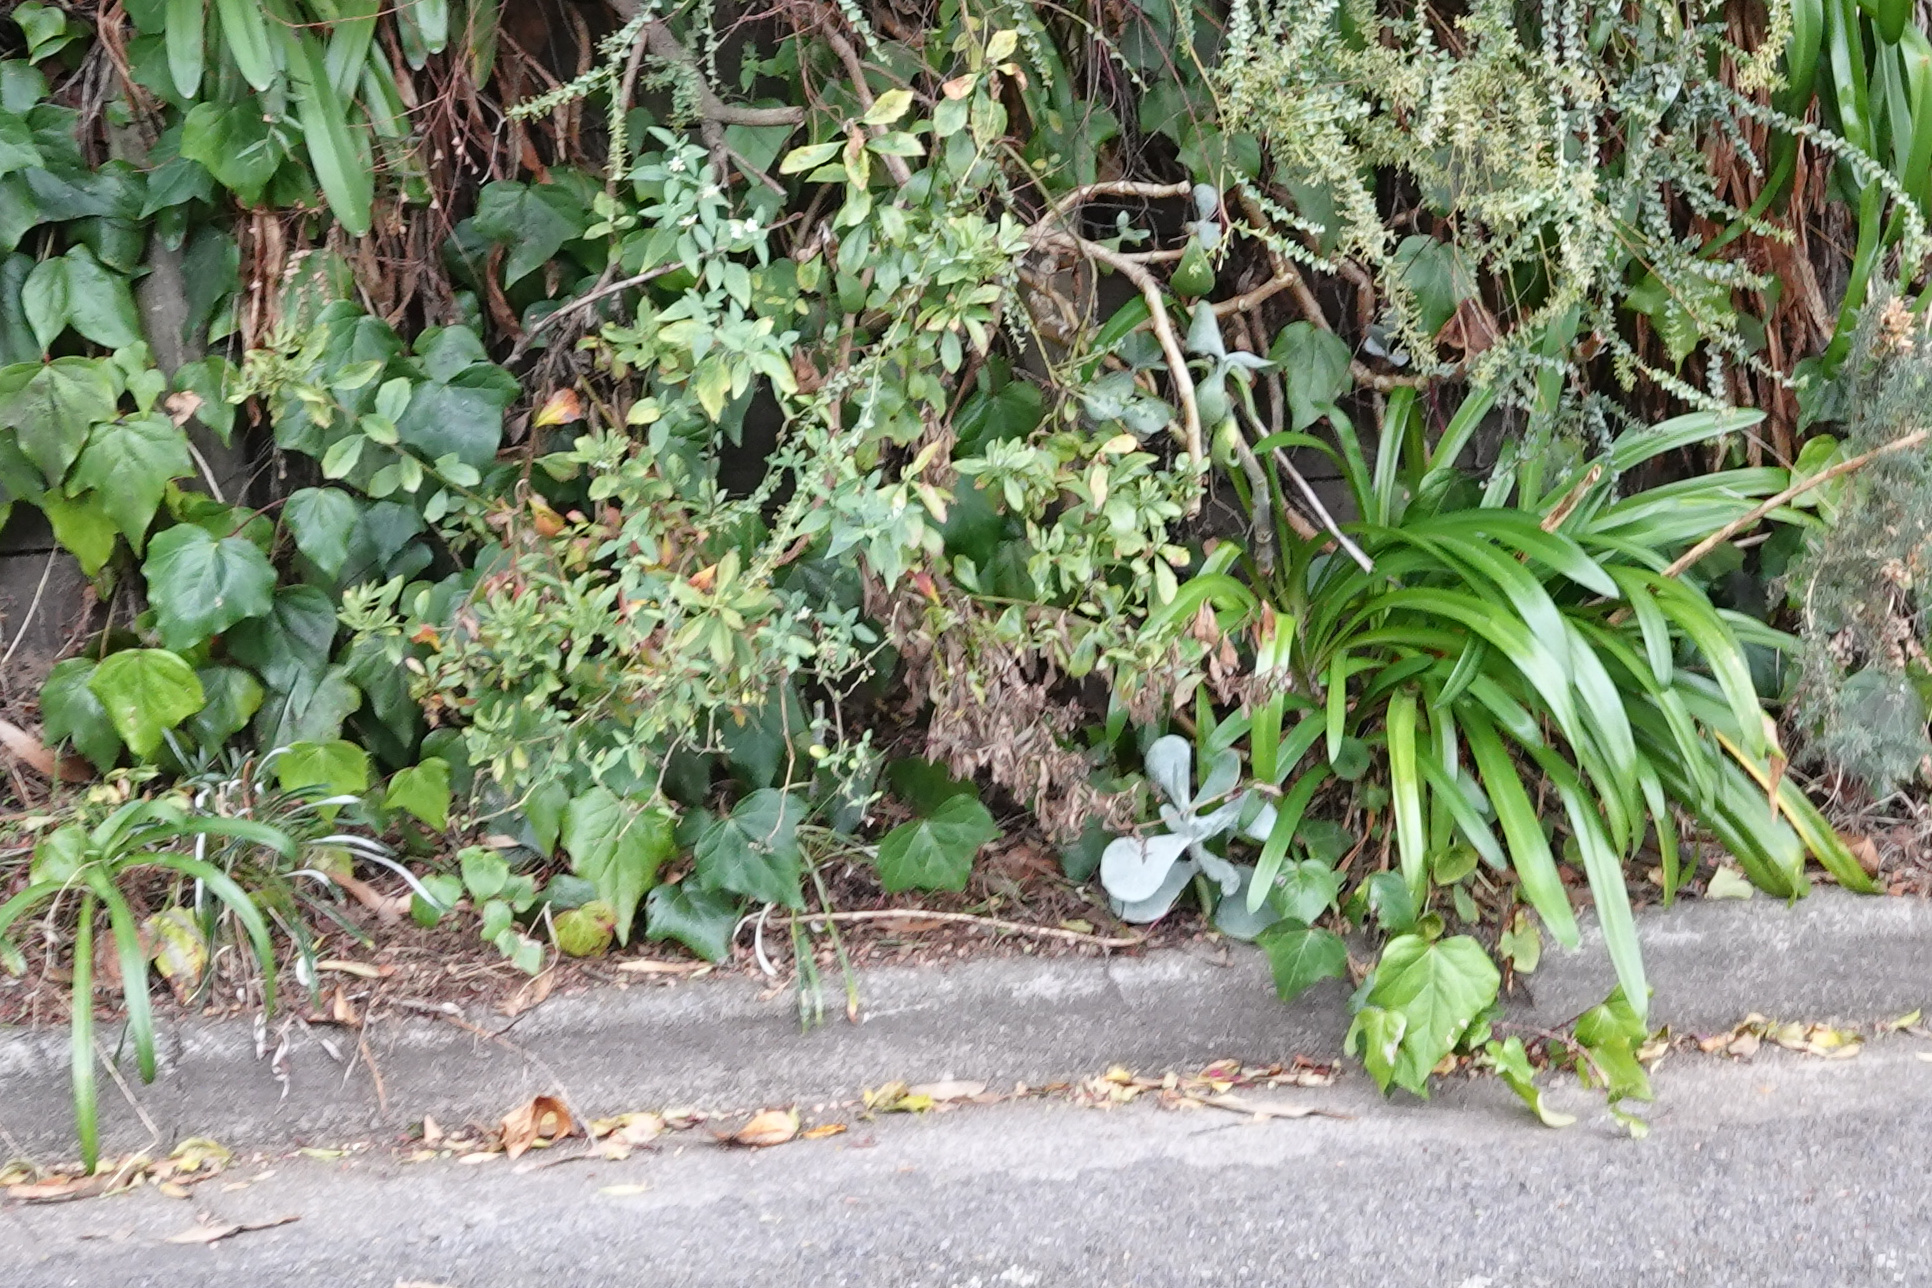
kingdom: Plantae
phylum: Tracheophyta
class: Liliopsida
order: Asparagales
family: Amaryllidaceae
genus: Agapanthus
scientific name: Agapanthus praecox
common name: African-lily
